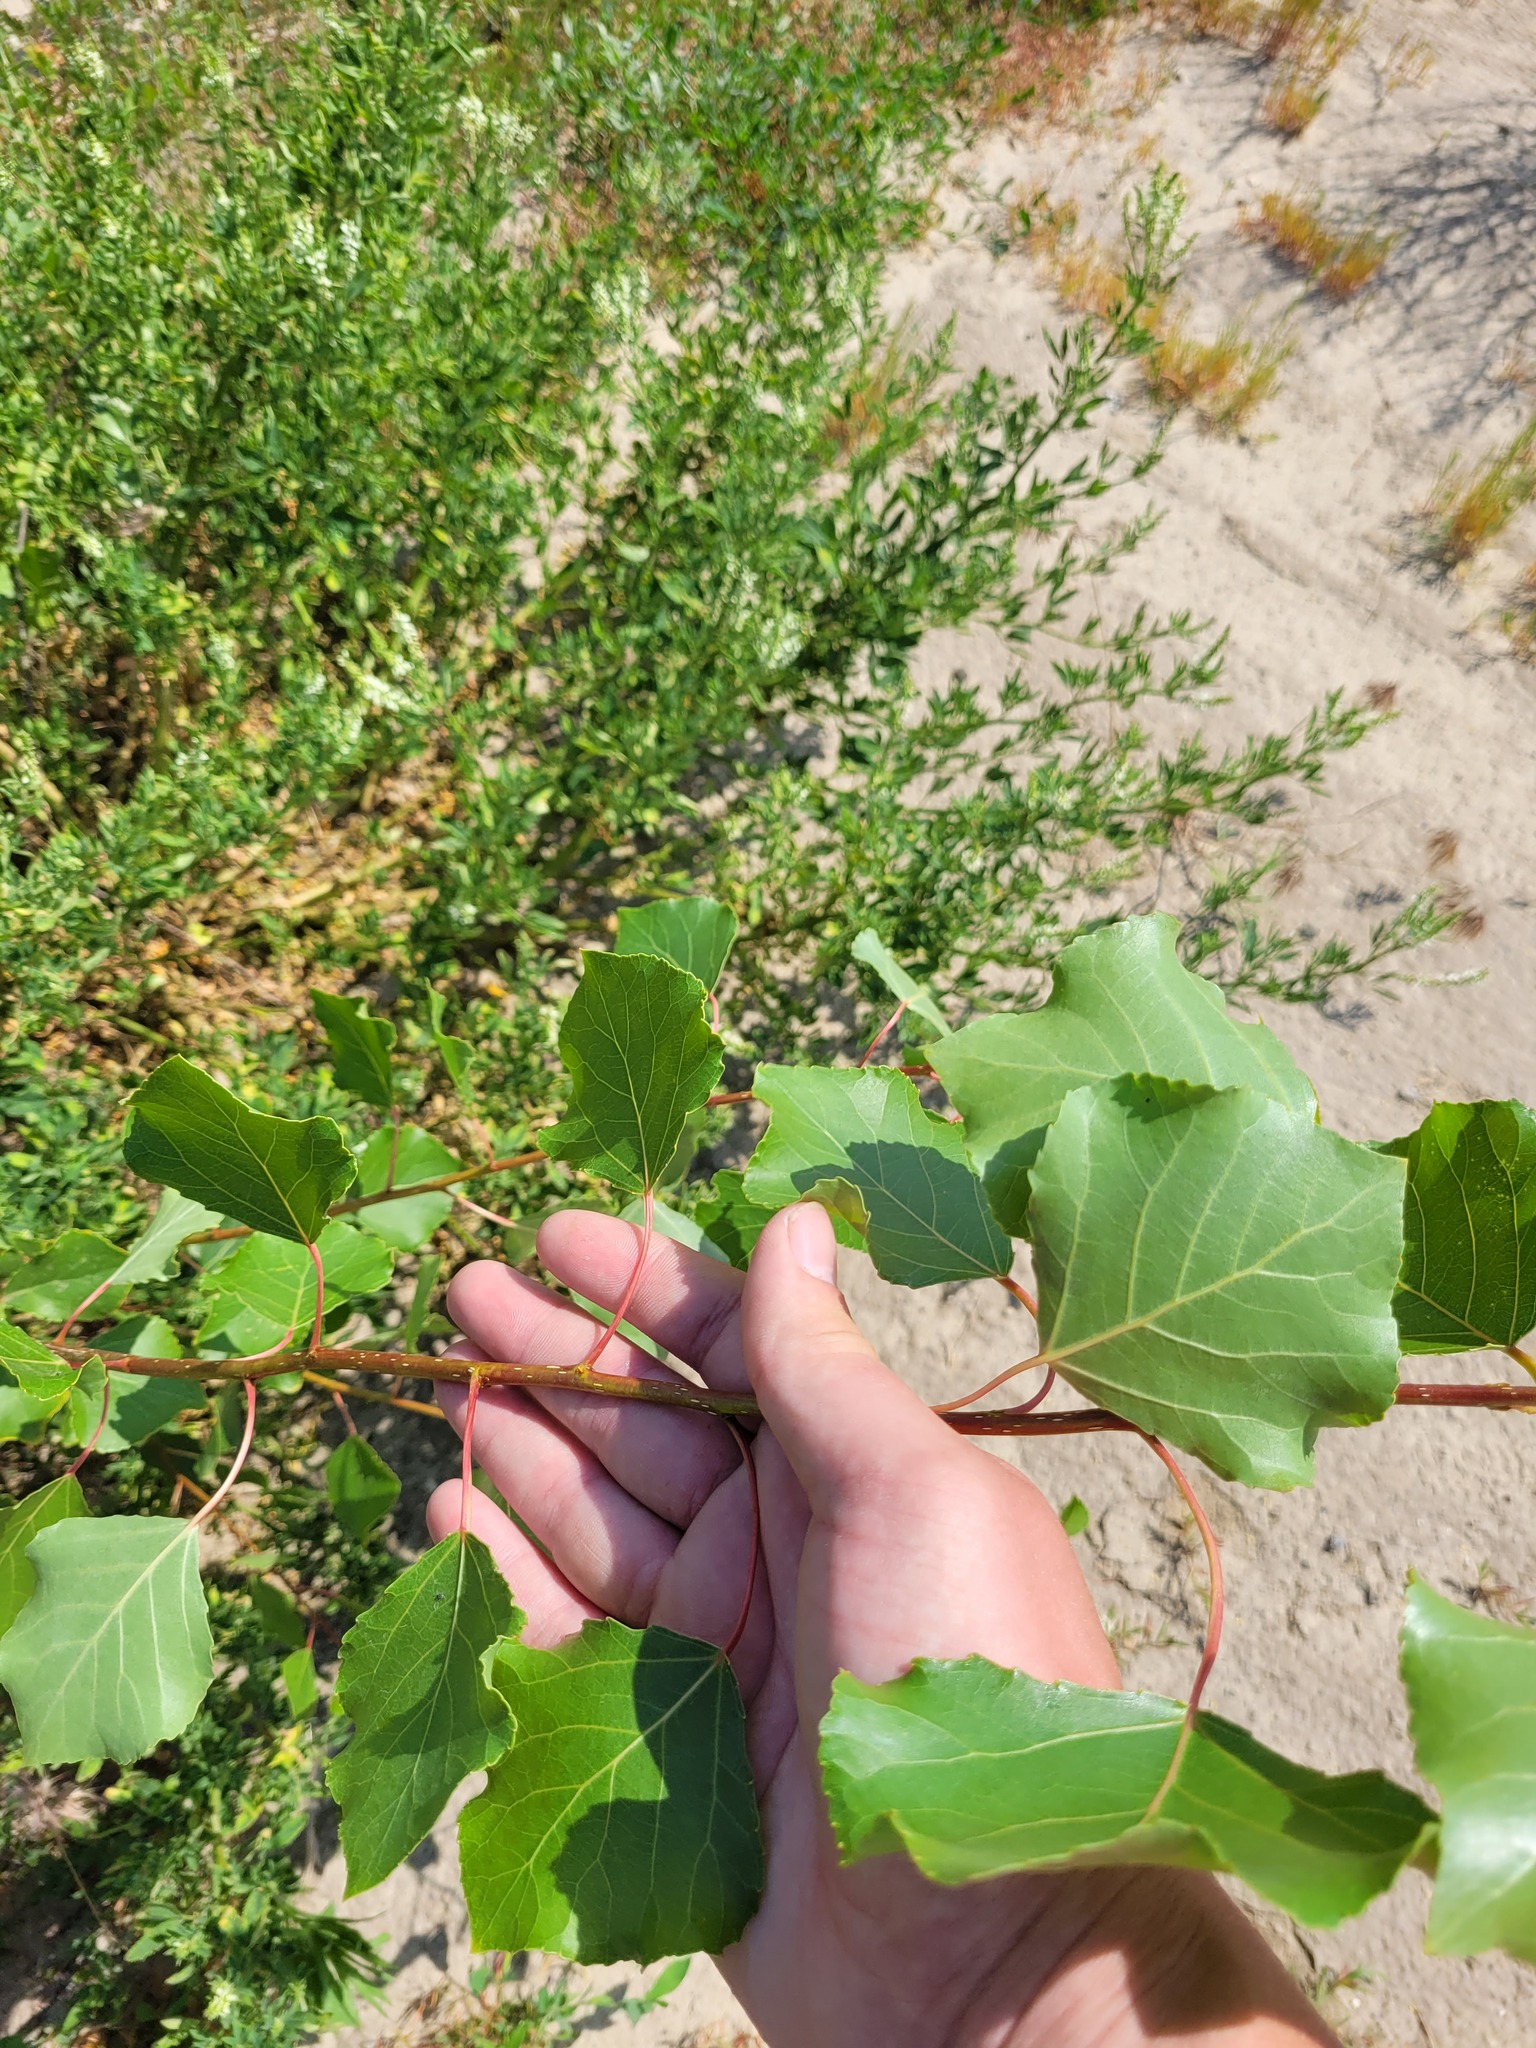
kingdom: Plantae
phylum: Tracheophyta
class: Magnoliopsida
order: Malpighiales
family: Salicaceae
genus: Populus
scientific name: Populus nigra
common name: Black poplar
